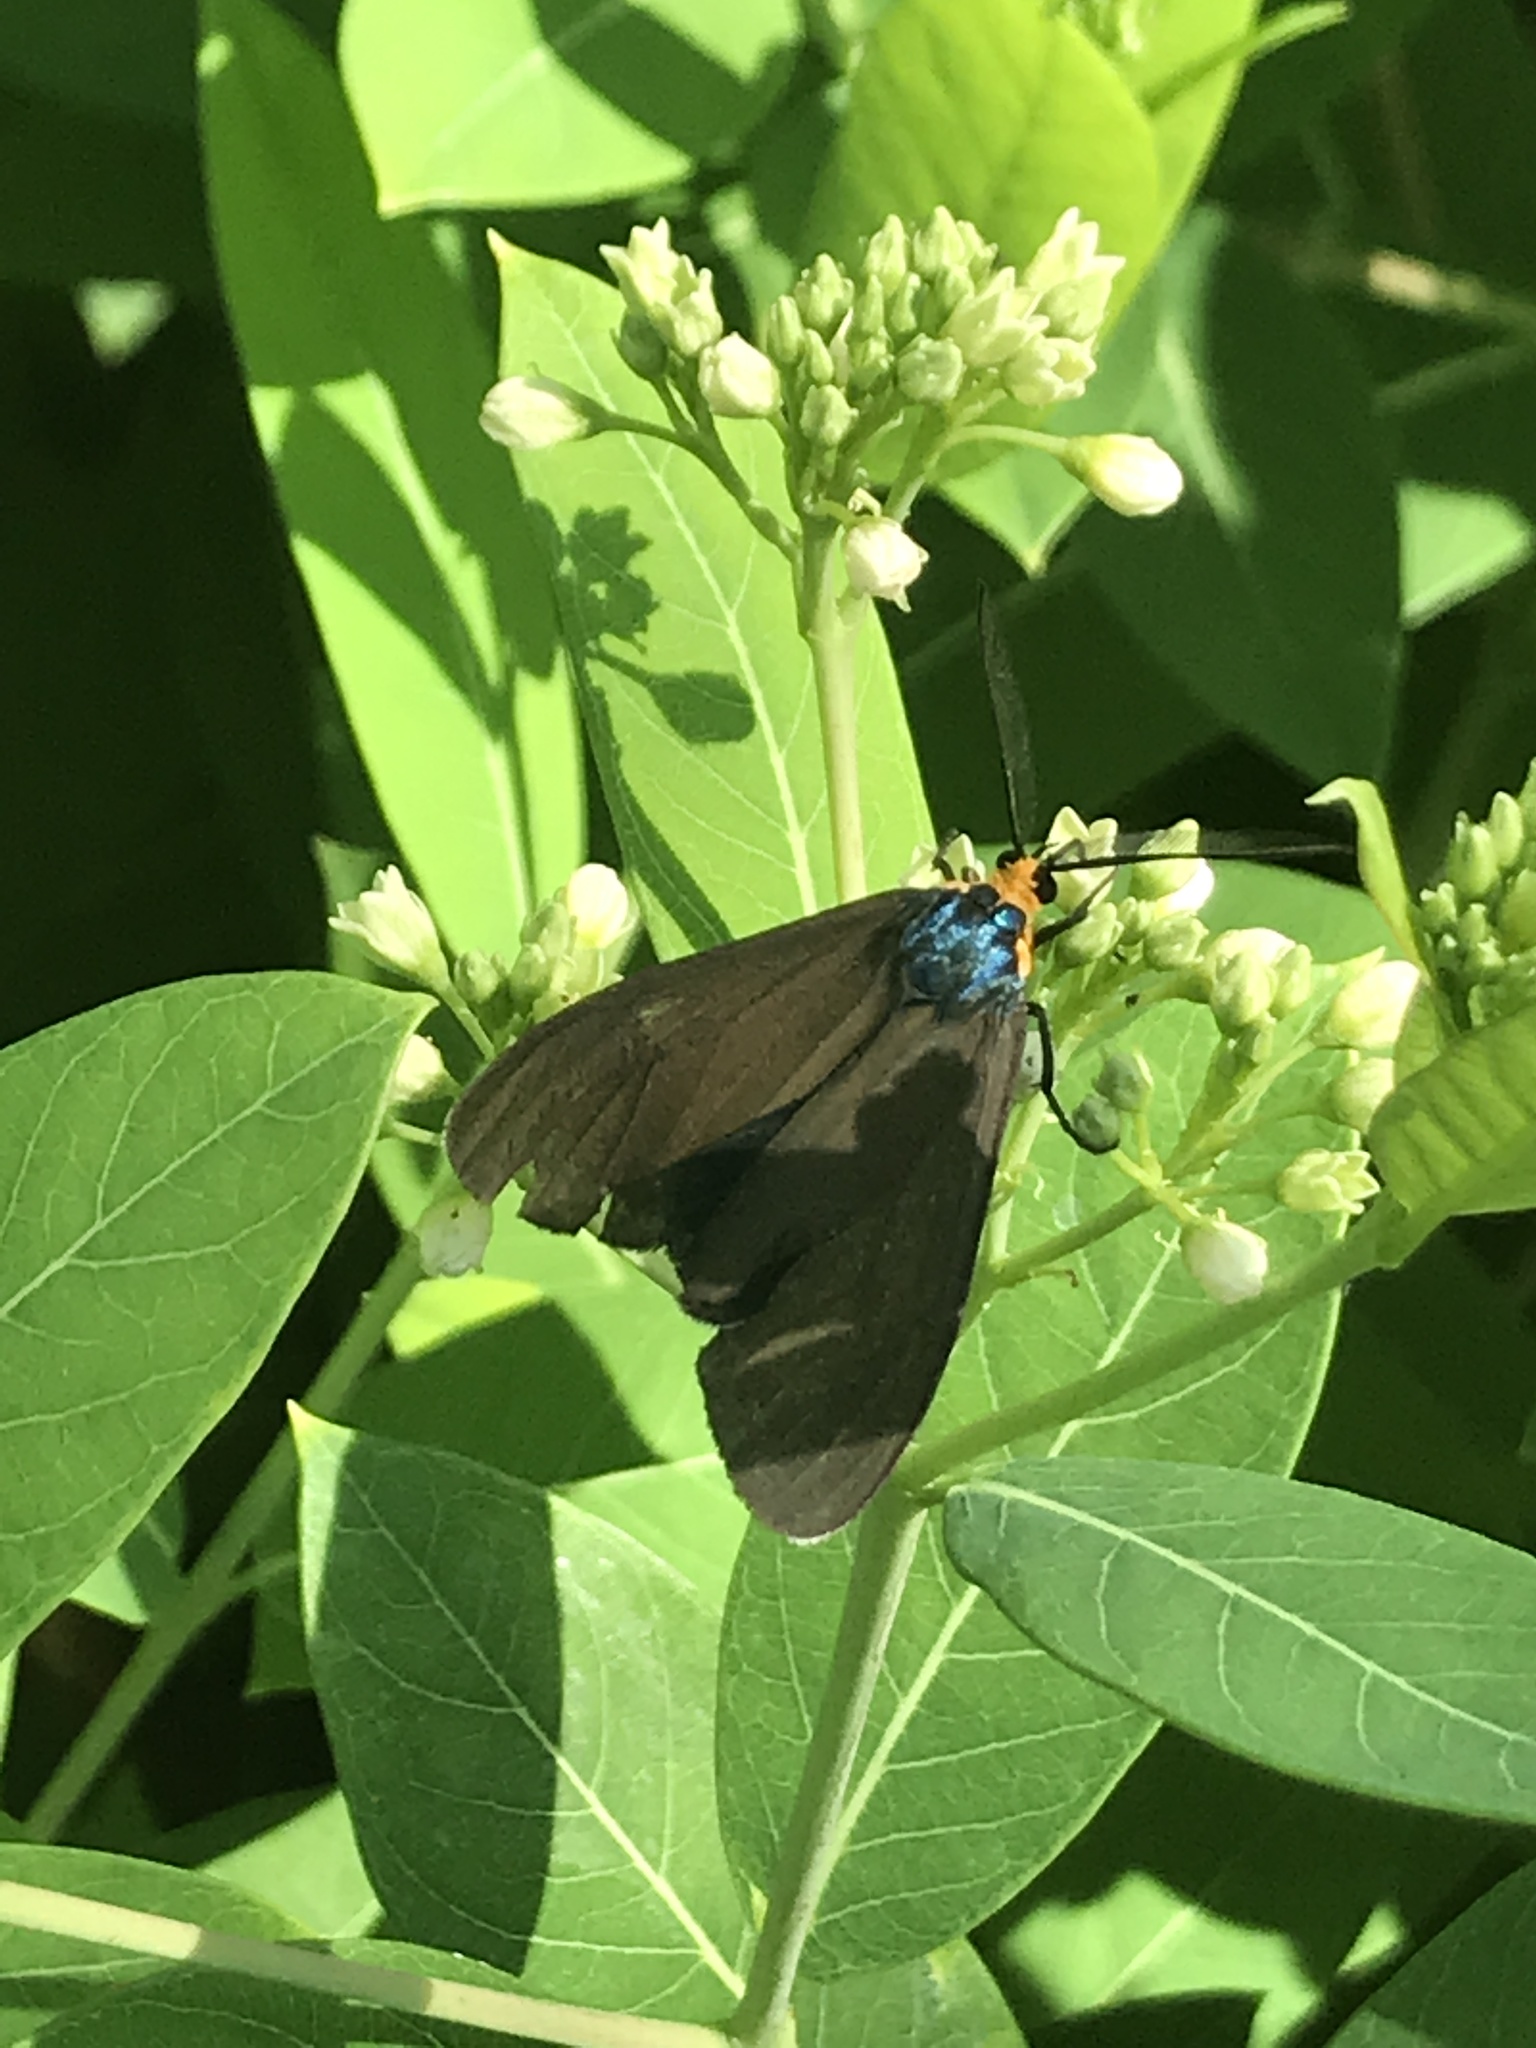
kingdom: Animalia
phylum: Arthropoda
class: Insecta
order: Lepidoptera
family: Erebidae
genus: Ctenucha
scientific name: Ctenucha virginica
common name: Virginia ctenucha moth
